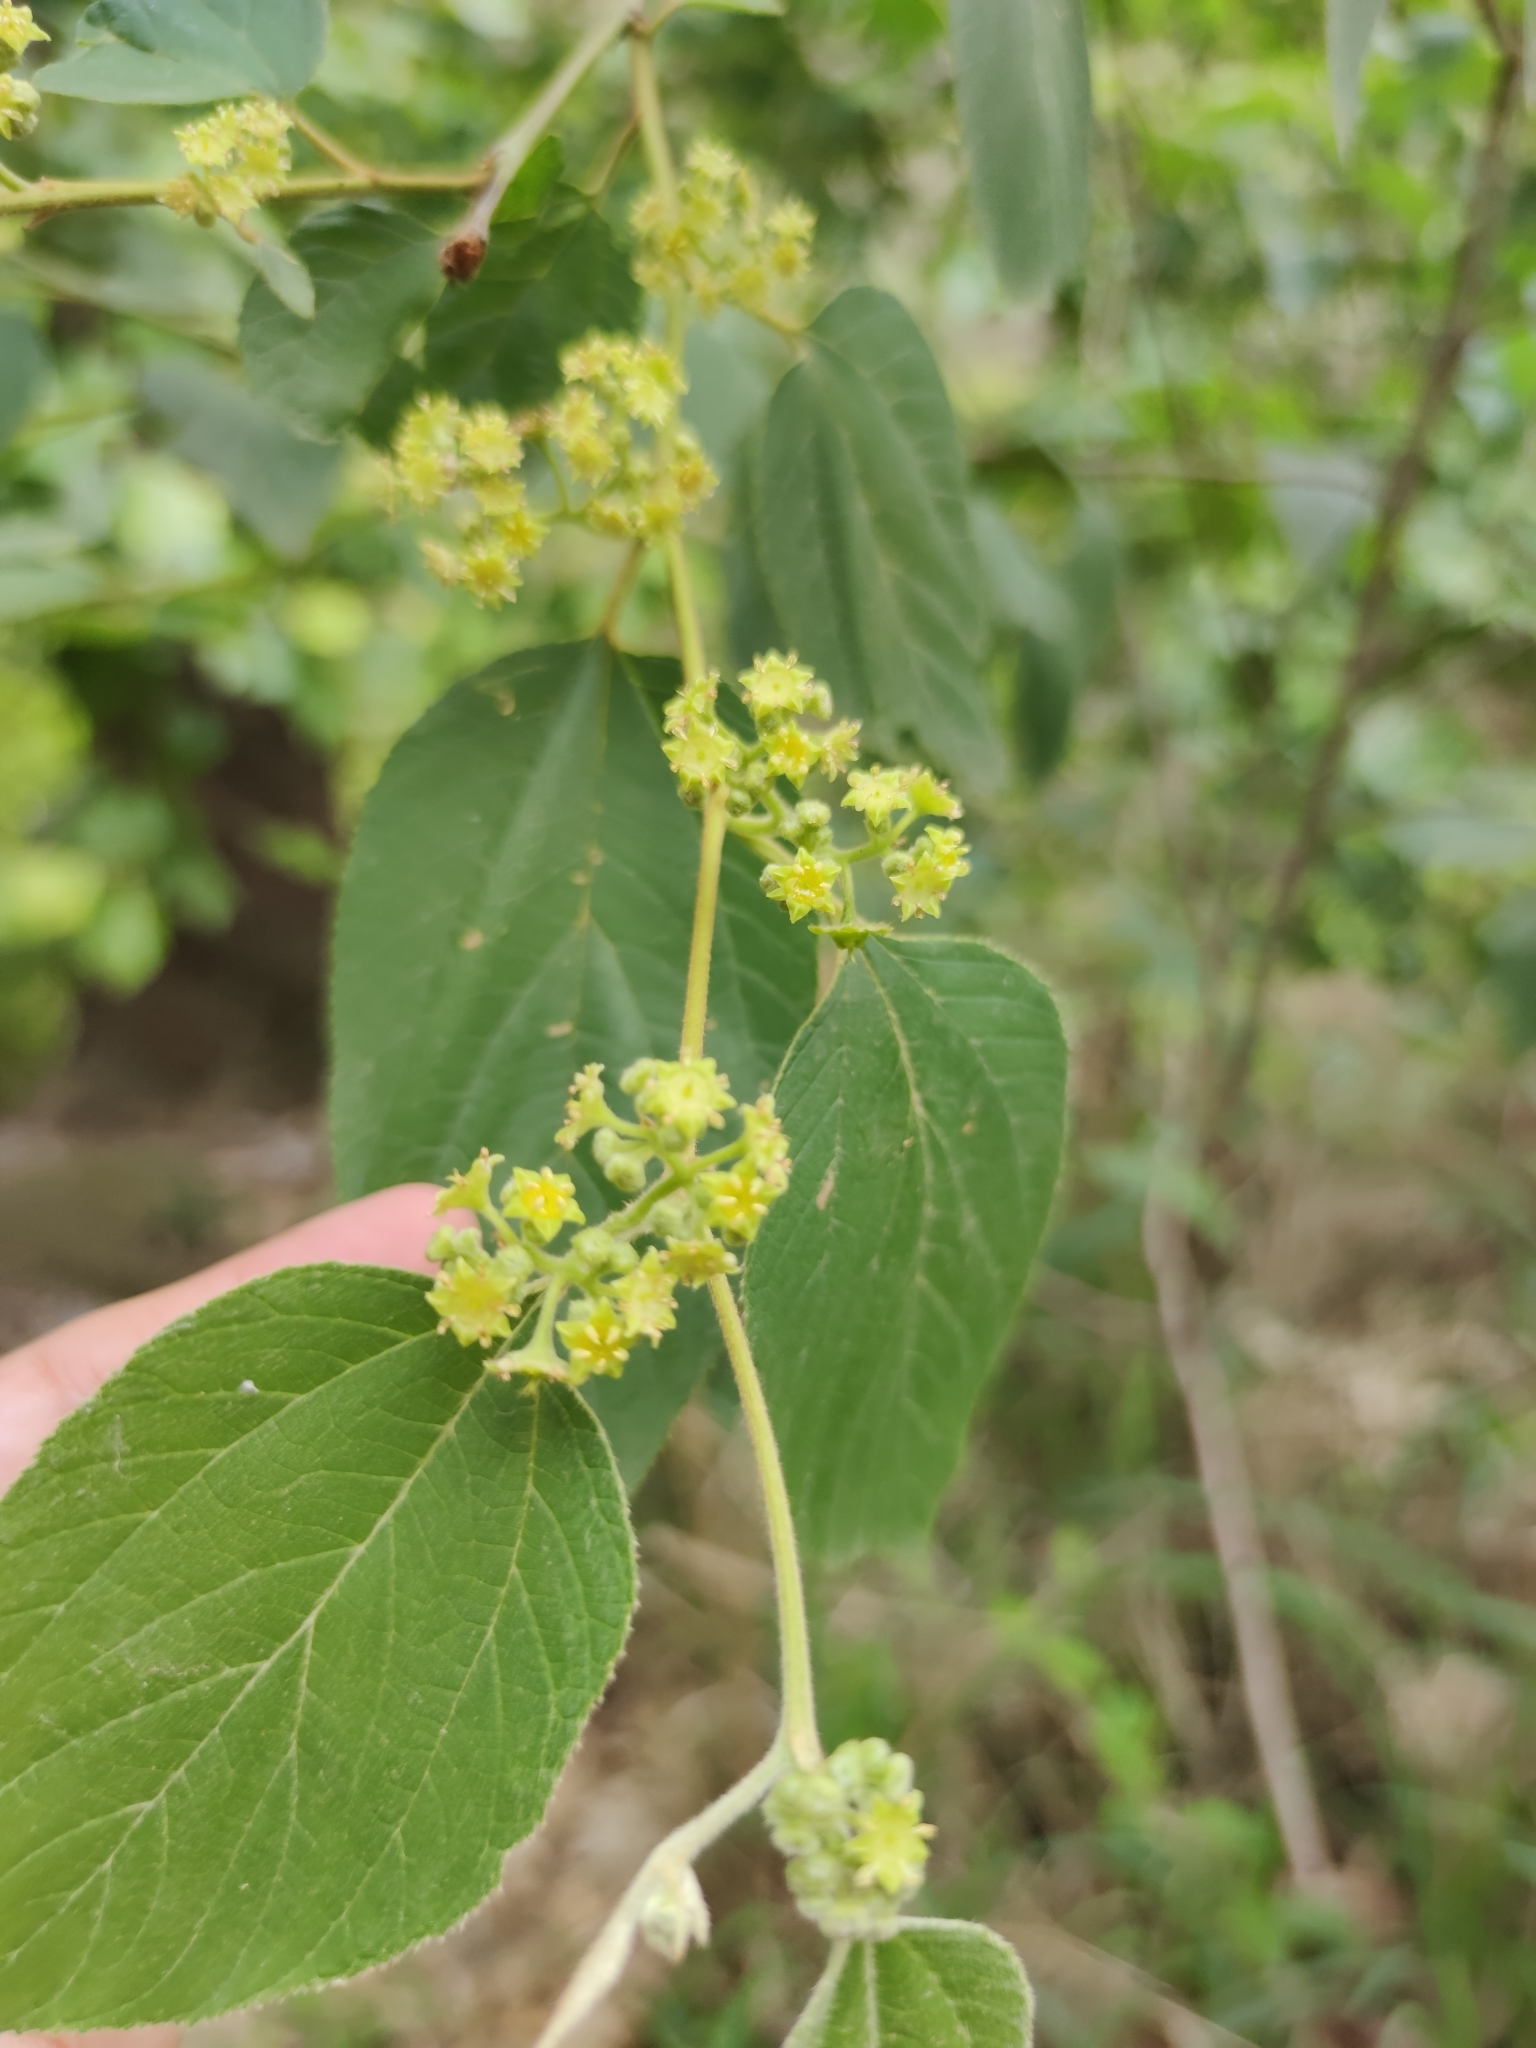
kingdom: Plantae
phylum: Tracheophyta
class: Magnoliopsida
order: Rosales
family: Rhamnaceae
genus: Colubrina
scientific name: Colubrina greggii
